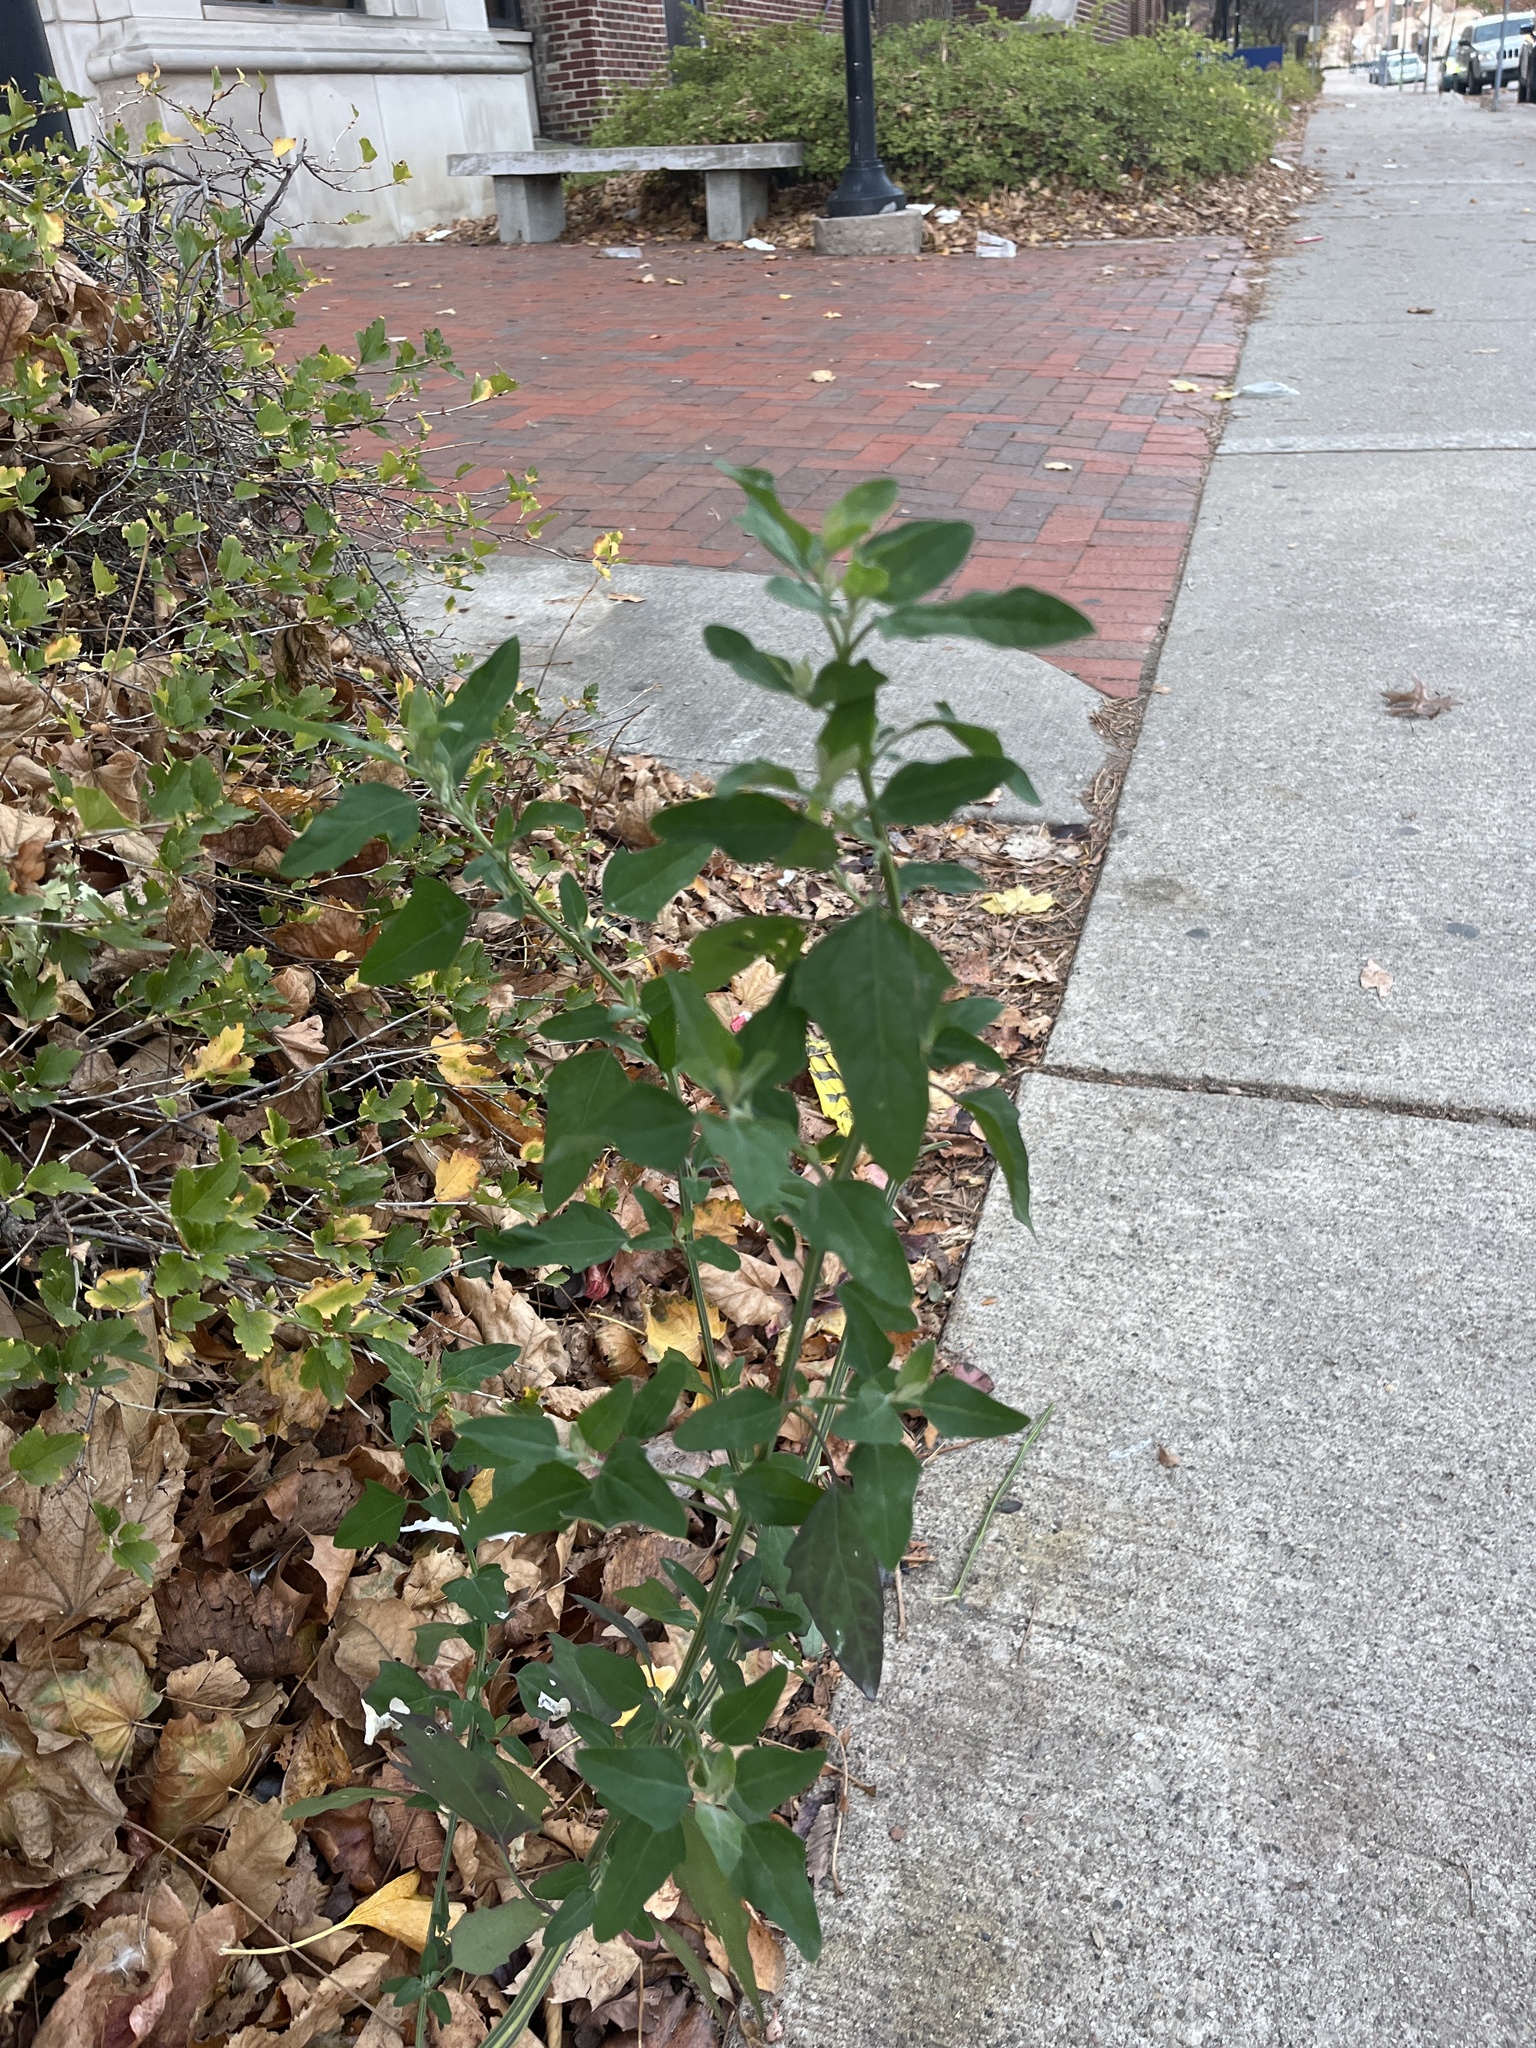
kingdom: Plantae
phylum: Tracheophyta
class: Magnoliopsida
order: Caryophyllales
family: Amaranthaceae
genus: Chenopodium
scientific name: Chenopodium album
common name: Fat-hen
